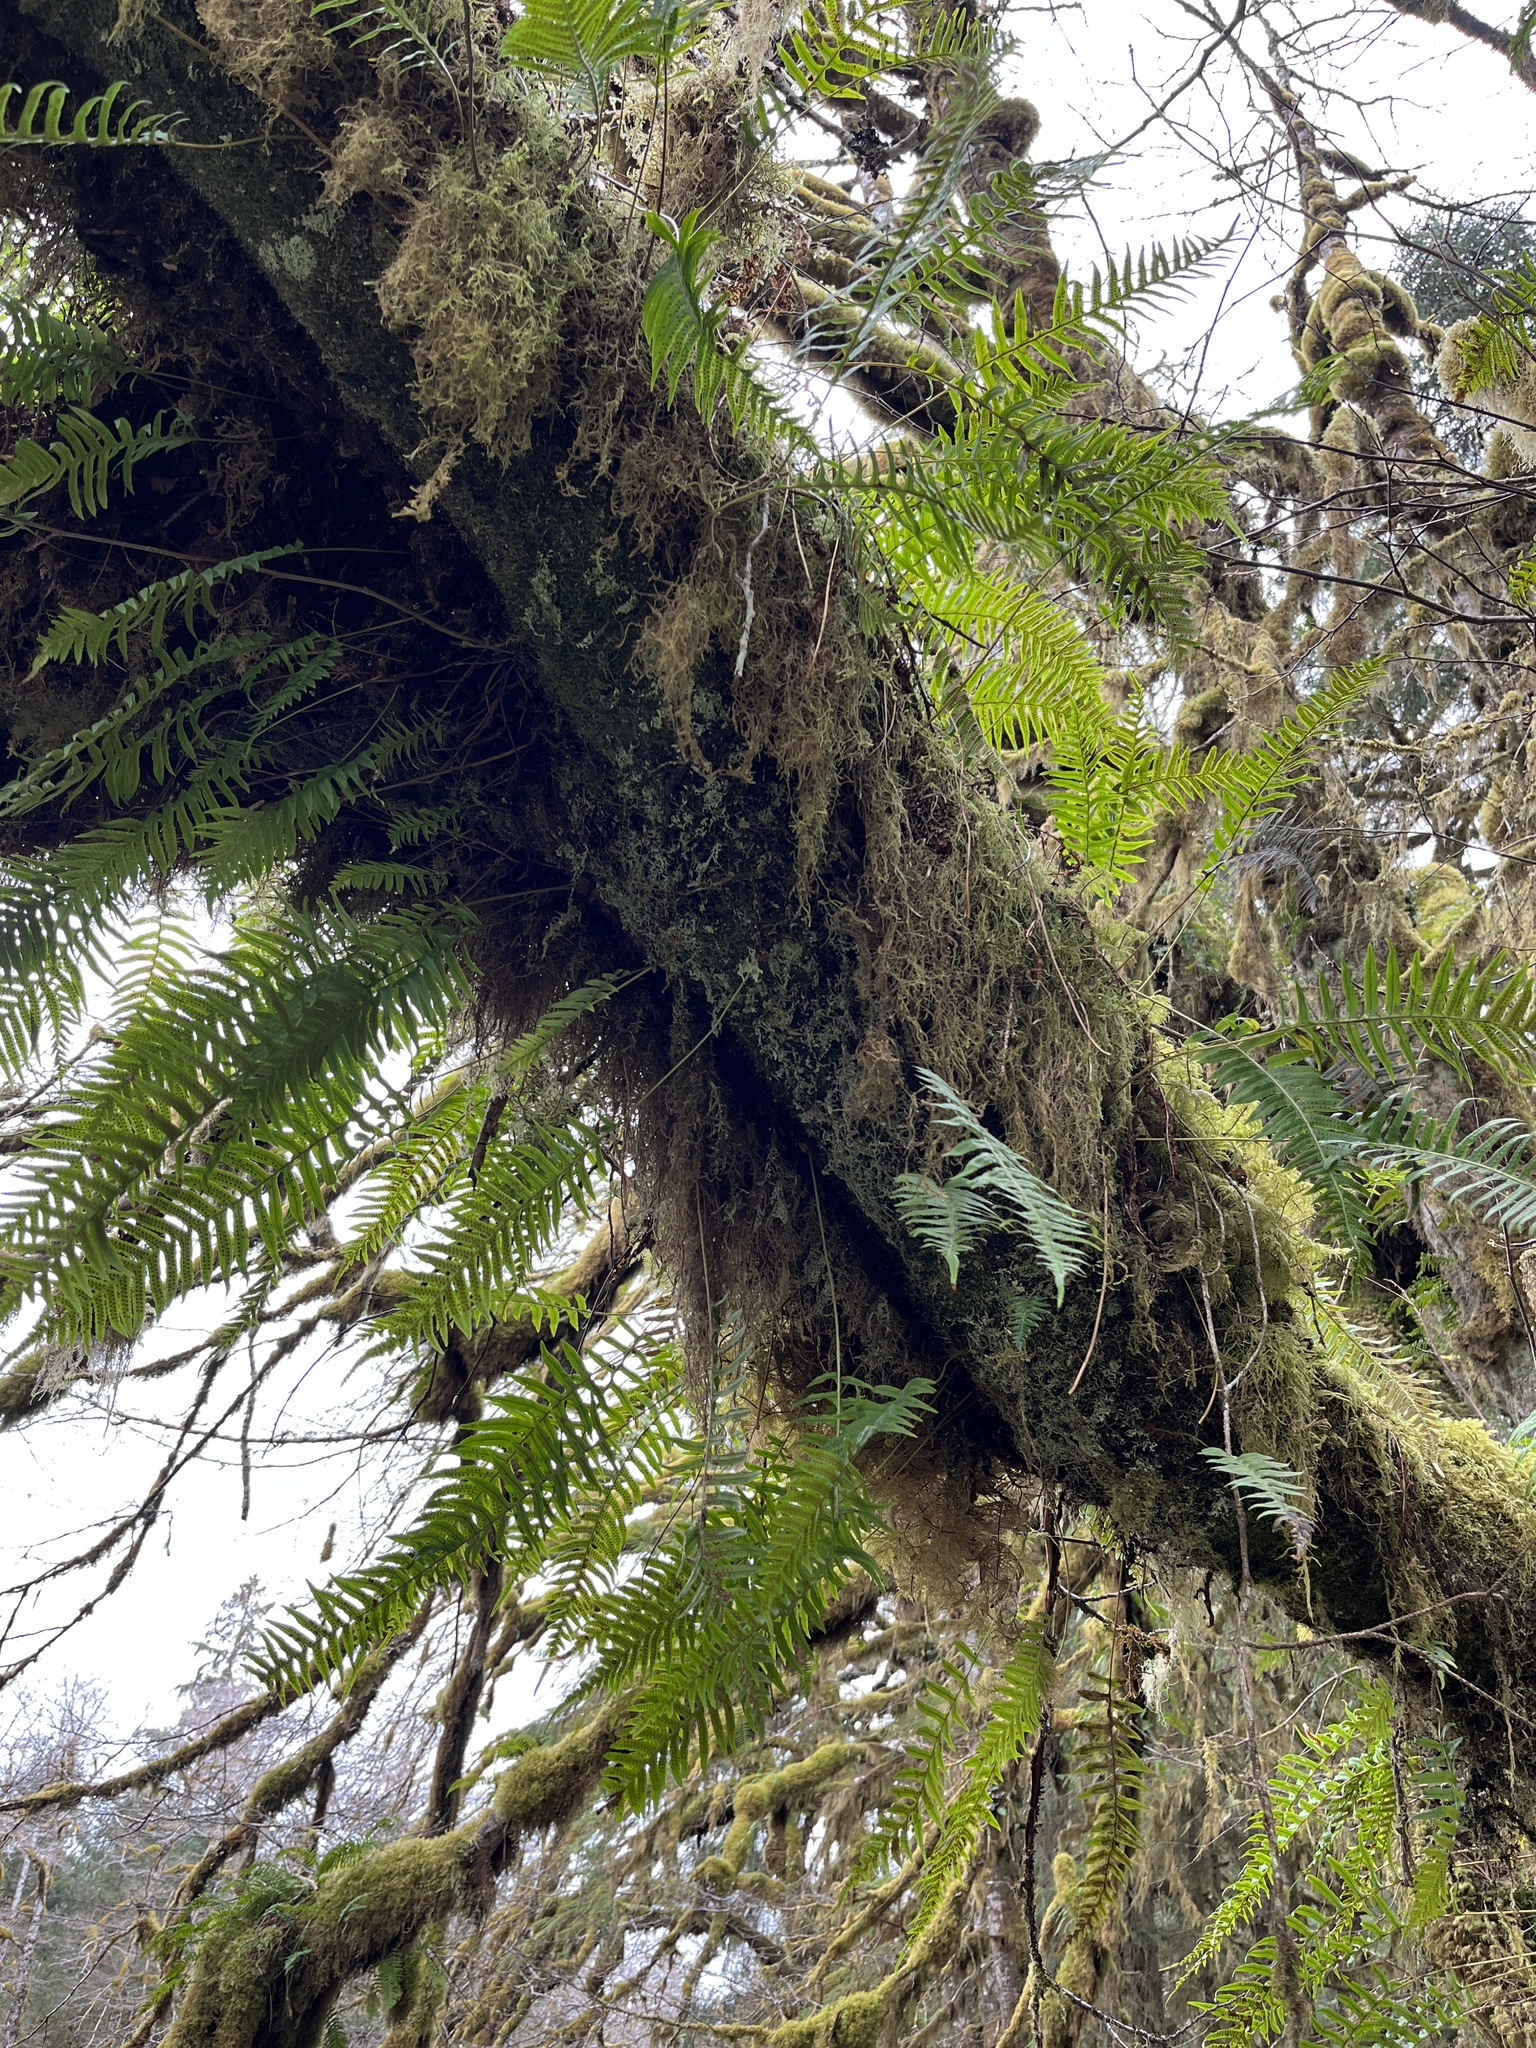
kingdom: Plantae
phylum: Tracheophyta
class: Polypodiopsida
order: Polypodiales
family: Polypodiaceae
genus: Polypodium
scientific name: Polypodium glycyrrhiza
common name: Licorice fern
